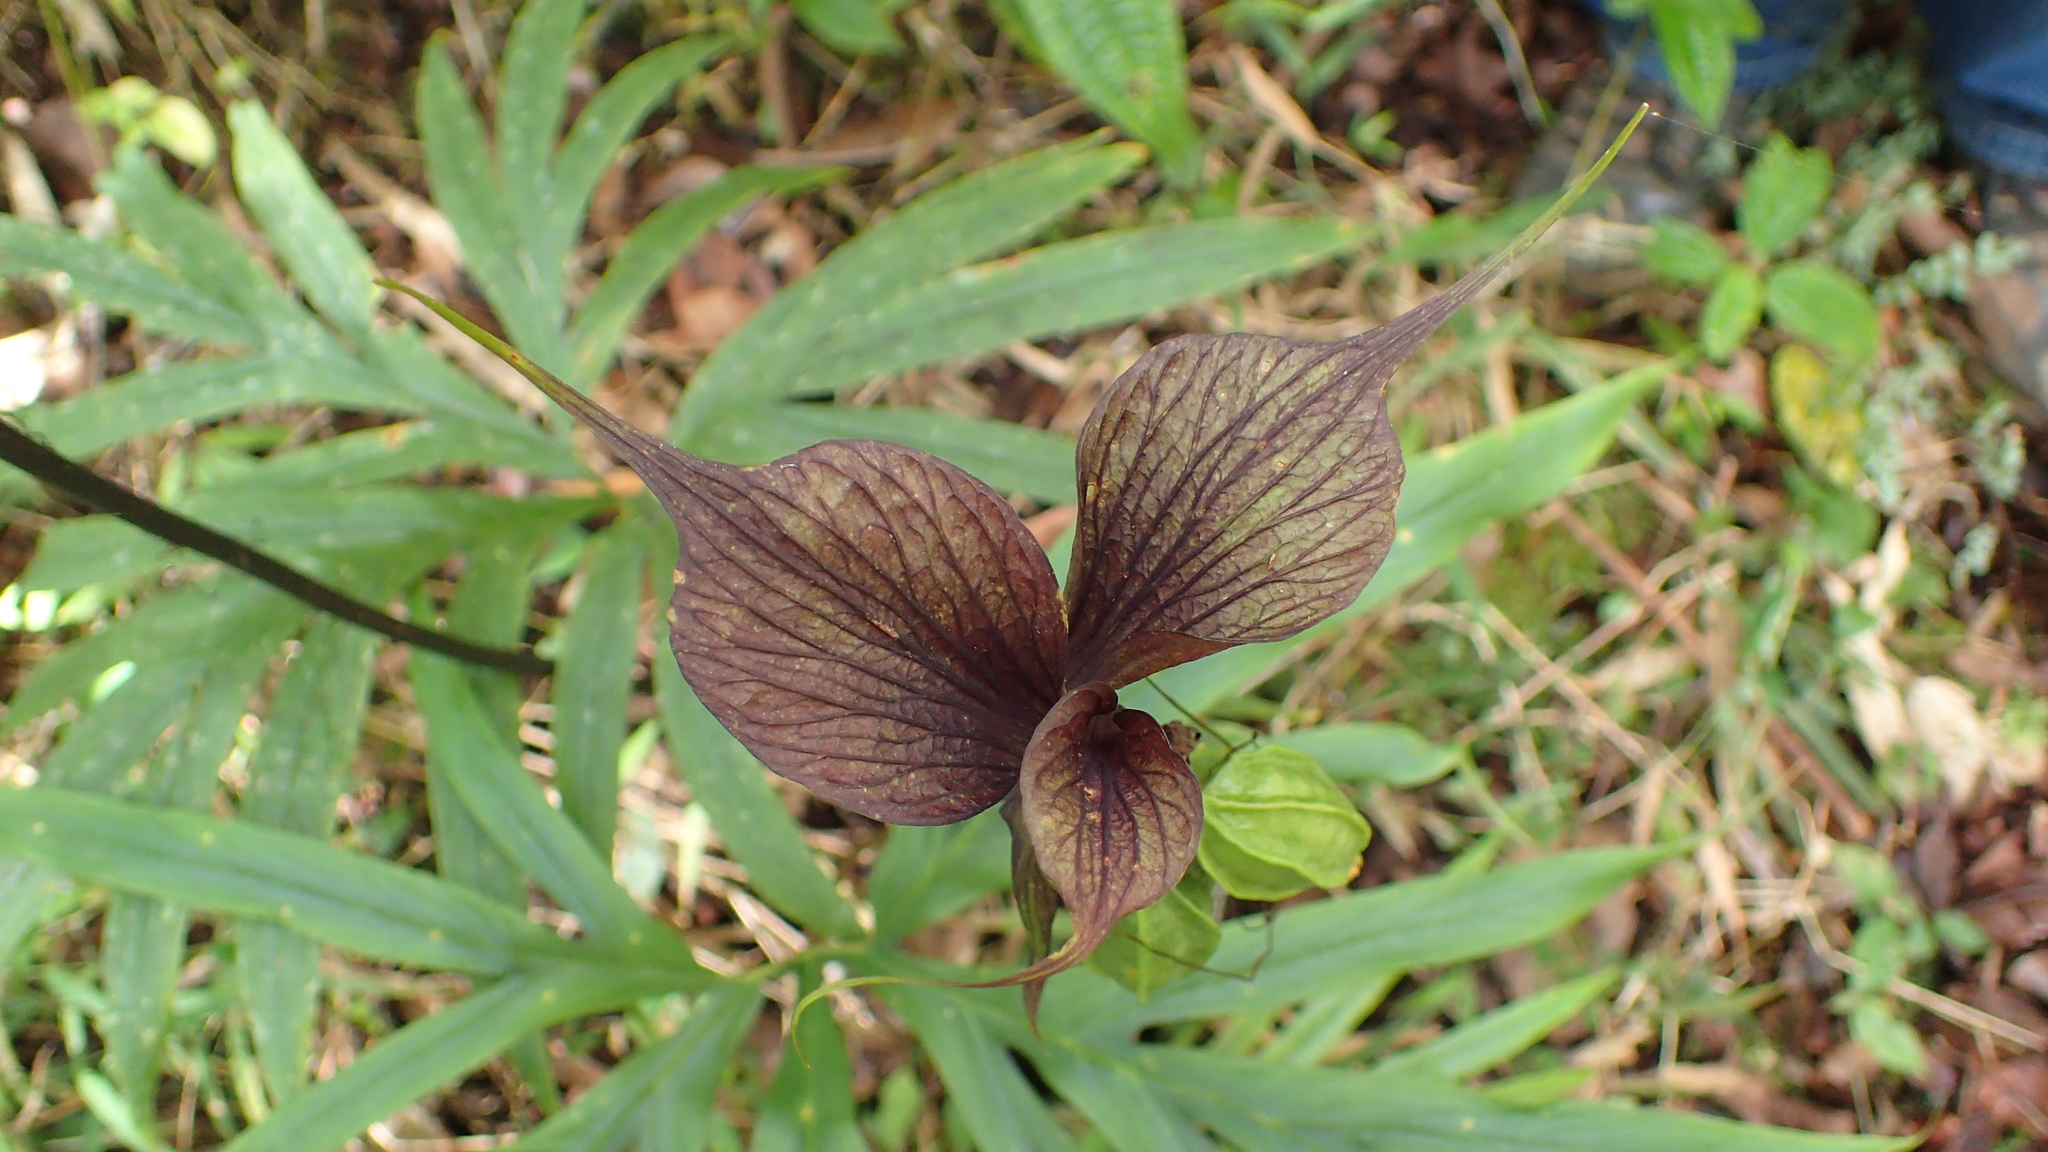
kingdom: Plantae
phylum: Tracheophyta
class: Liliopsida
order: Dioscoreales
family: Dioscoreaceae
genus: Tacca
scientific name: Tacca leontopetaloides
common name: Arrowroot
